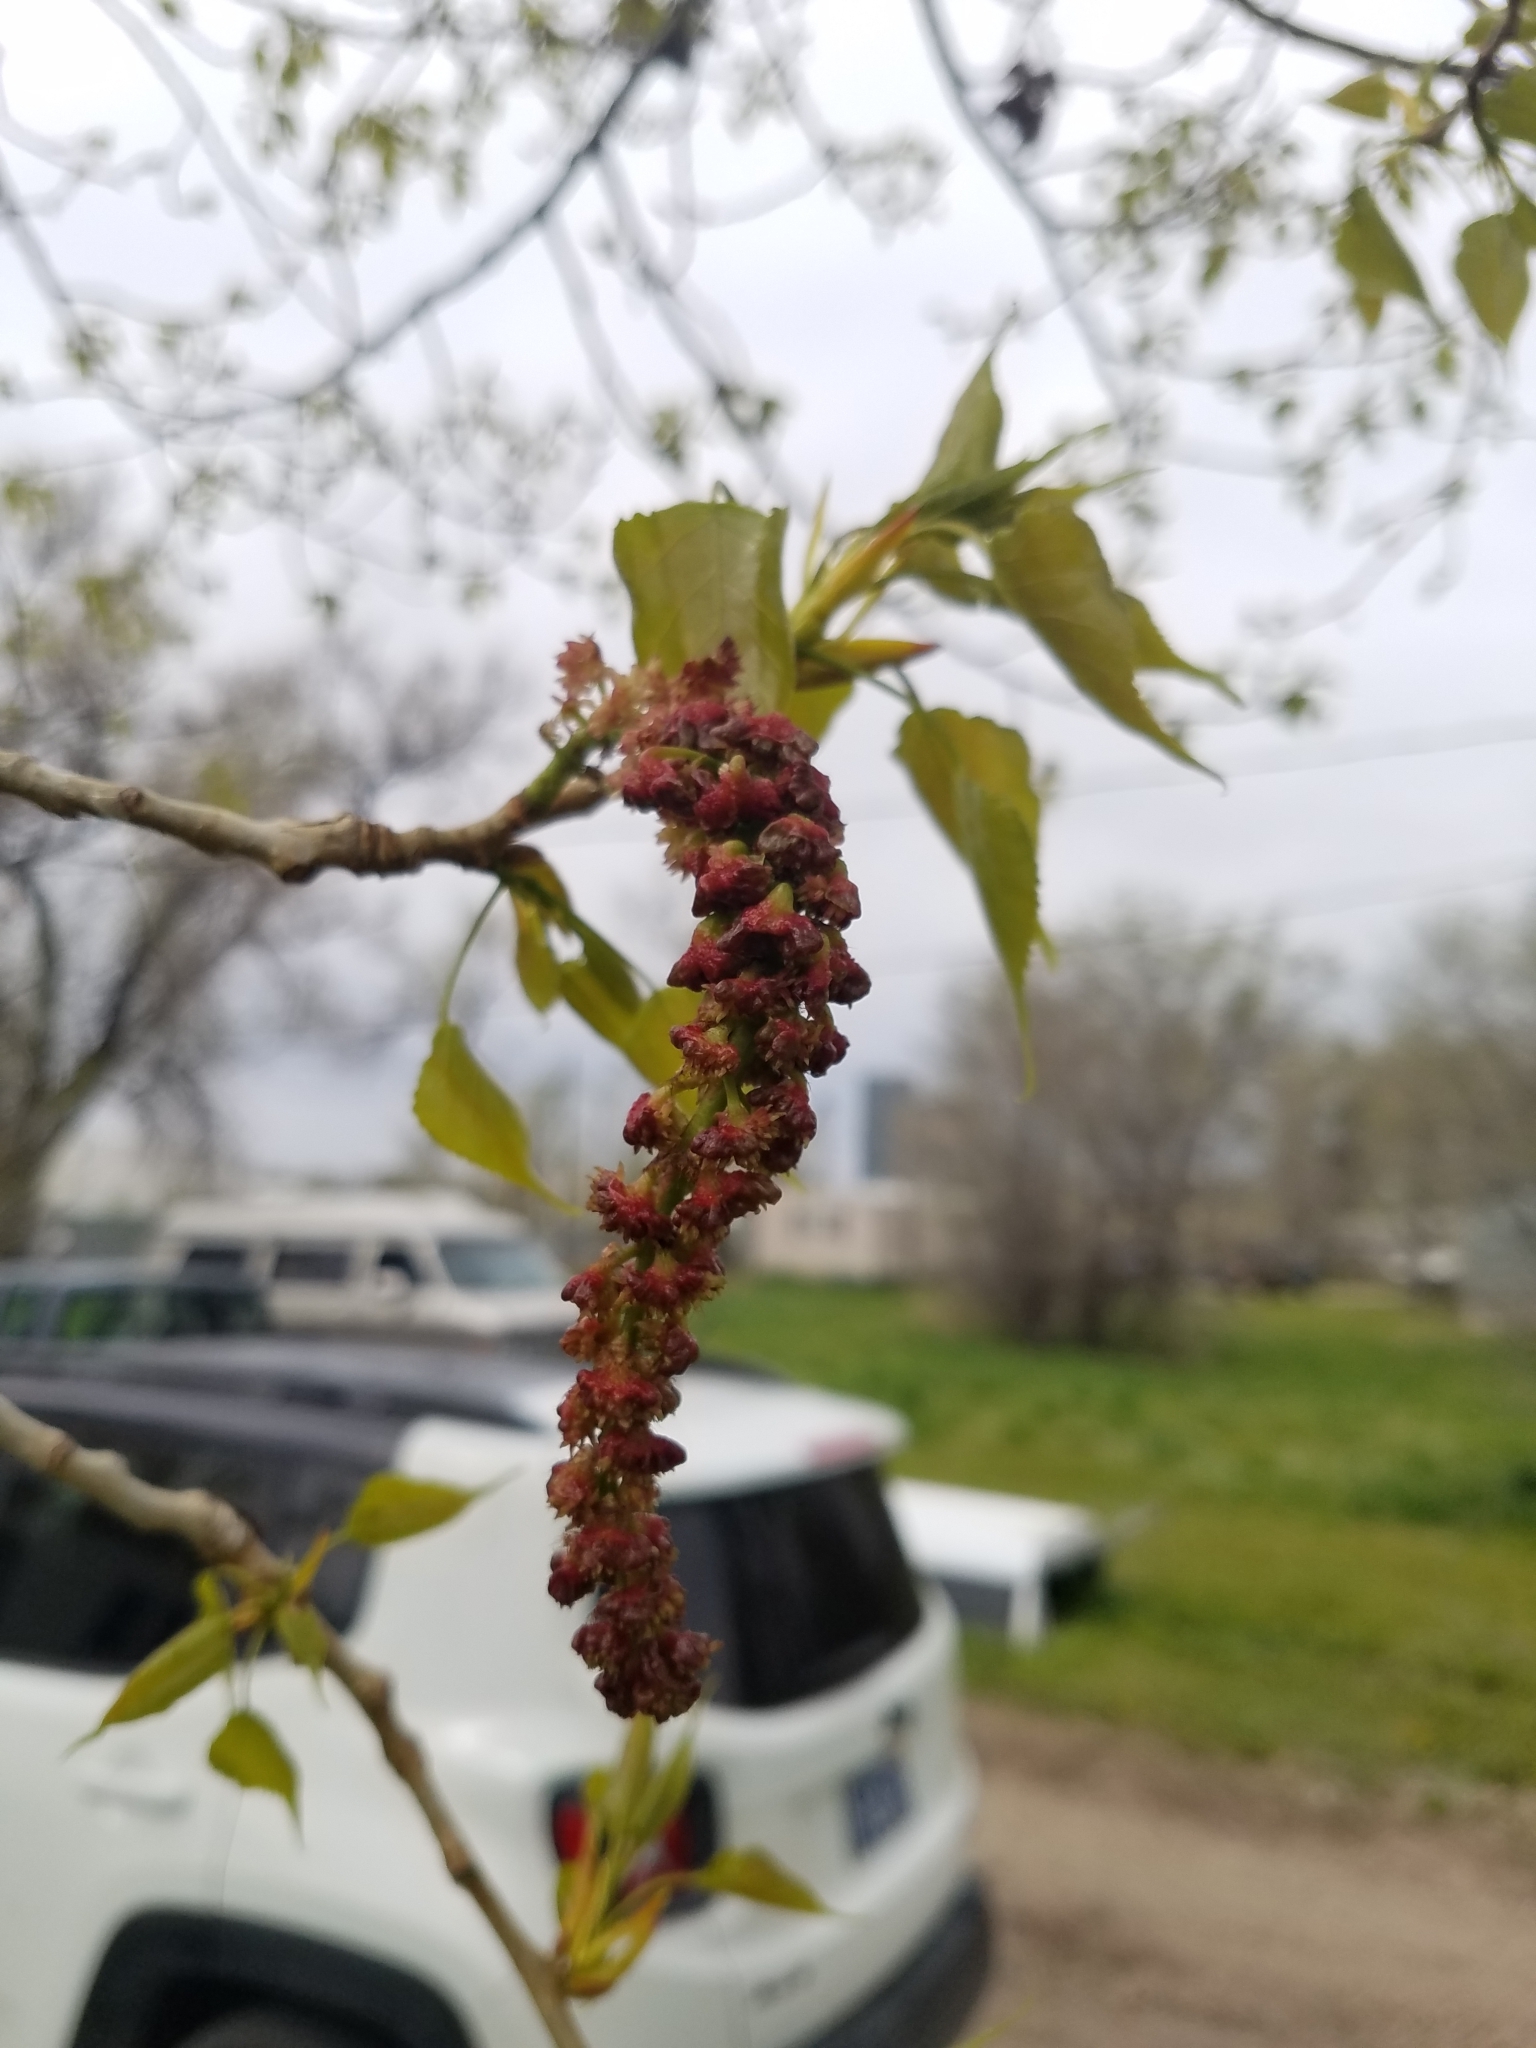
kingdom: Plantae
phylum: Tracheophyta
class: Magnoliopsida
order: Malpighiales
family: Salicaceae
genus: Populus
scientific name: Populus deltoides
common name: Eastern cottonwood
